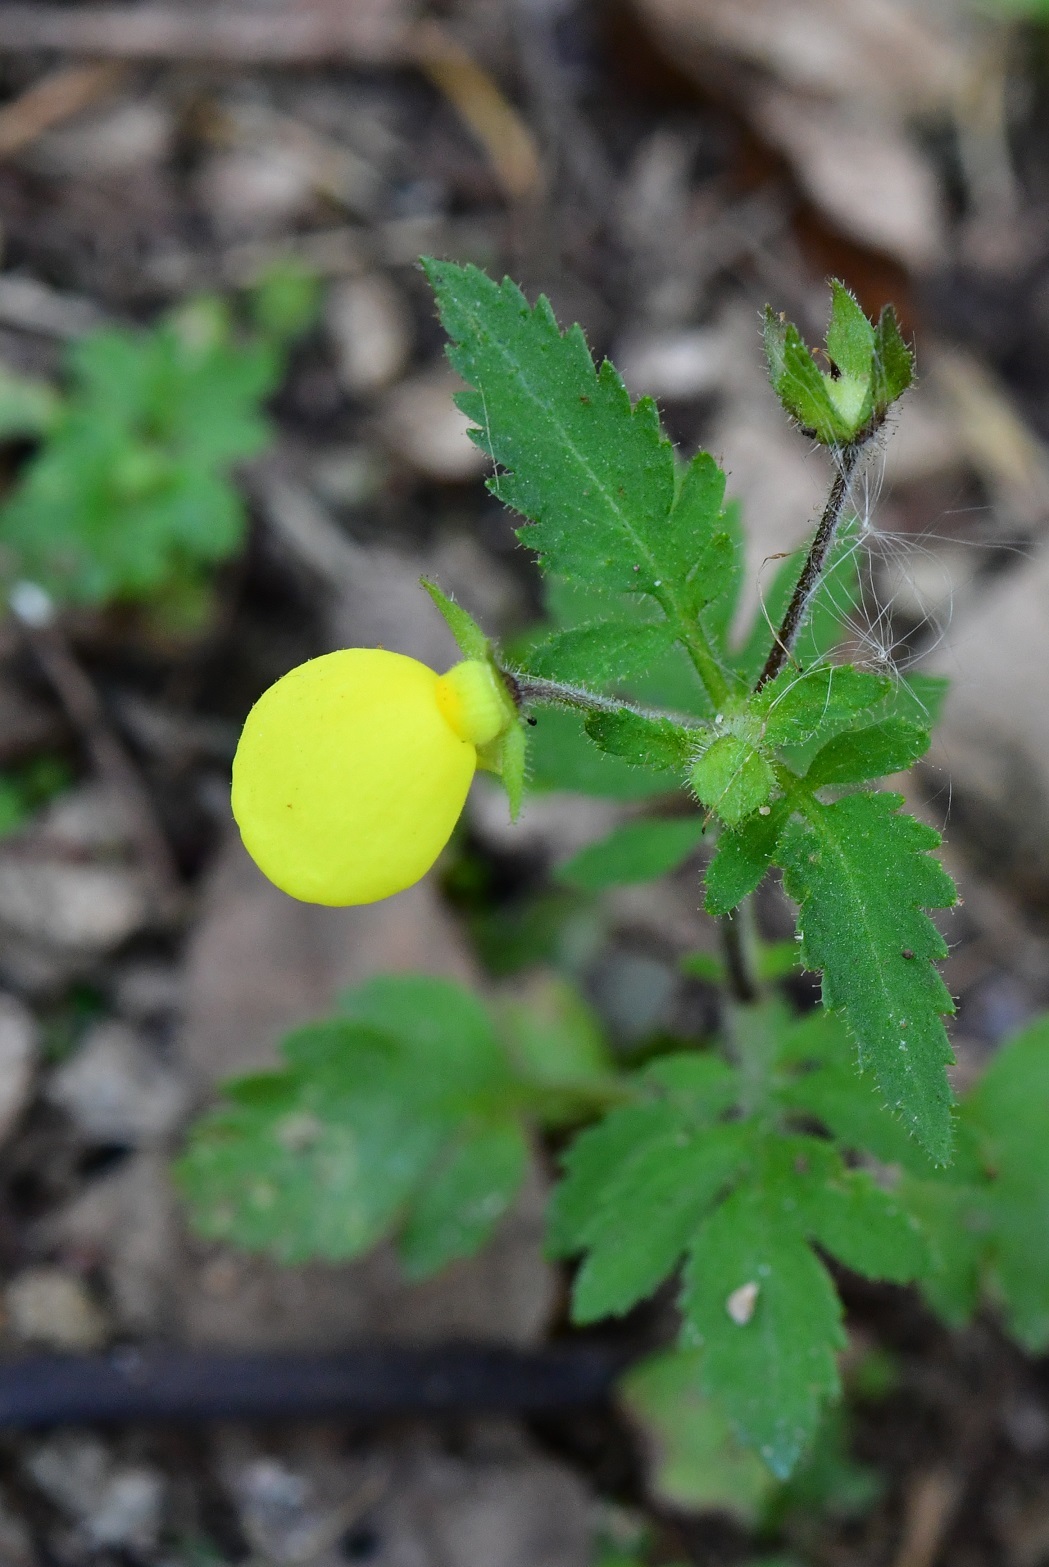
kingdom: Plantae
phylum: Tracheophyta
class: Magnoliopsida
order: Lamiales
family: Calceolariaceae
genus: Calceolaria
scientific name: Calceolaria tripartita
